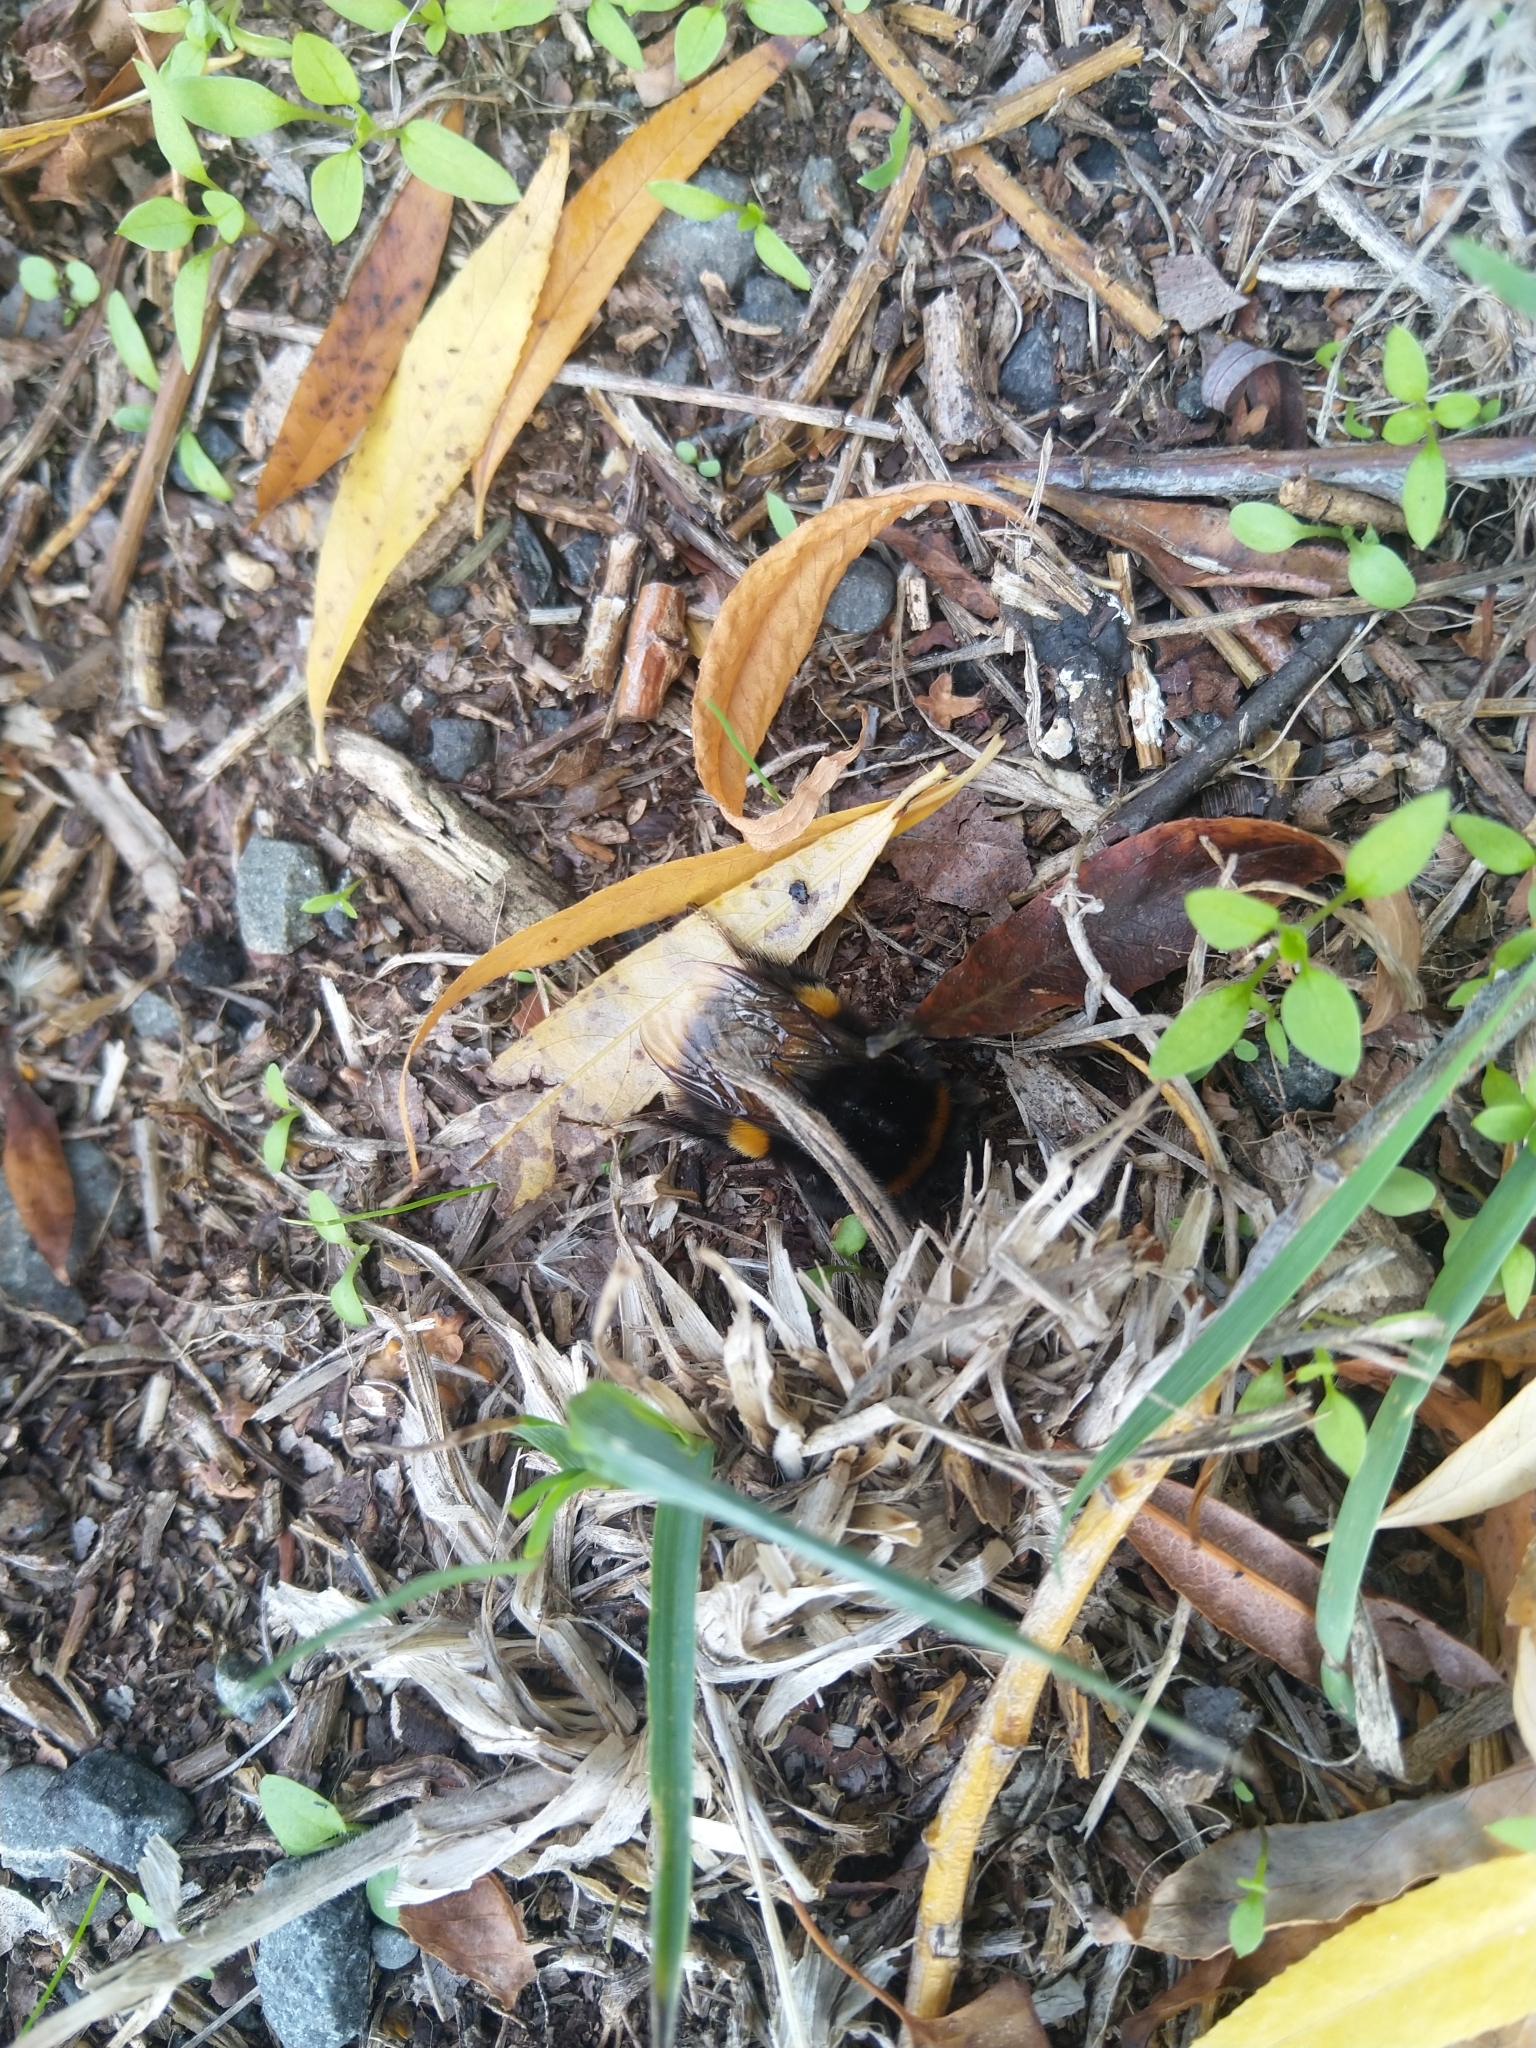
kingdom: Animalia
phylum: Arthropoda
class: Insecta
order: Hymenoptera
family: Apidae
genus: Bombus
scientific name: Bombus terrestris
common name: Buff-tailed bumblebee
